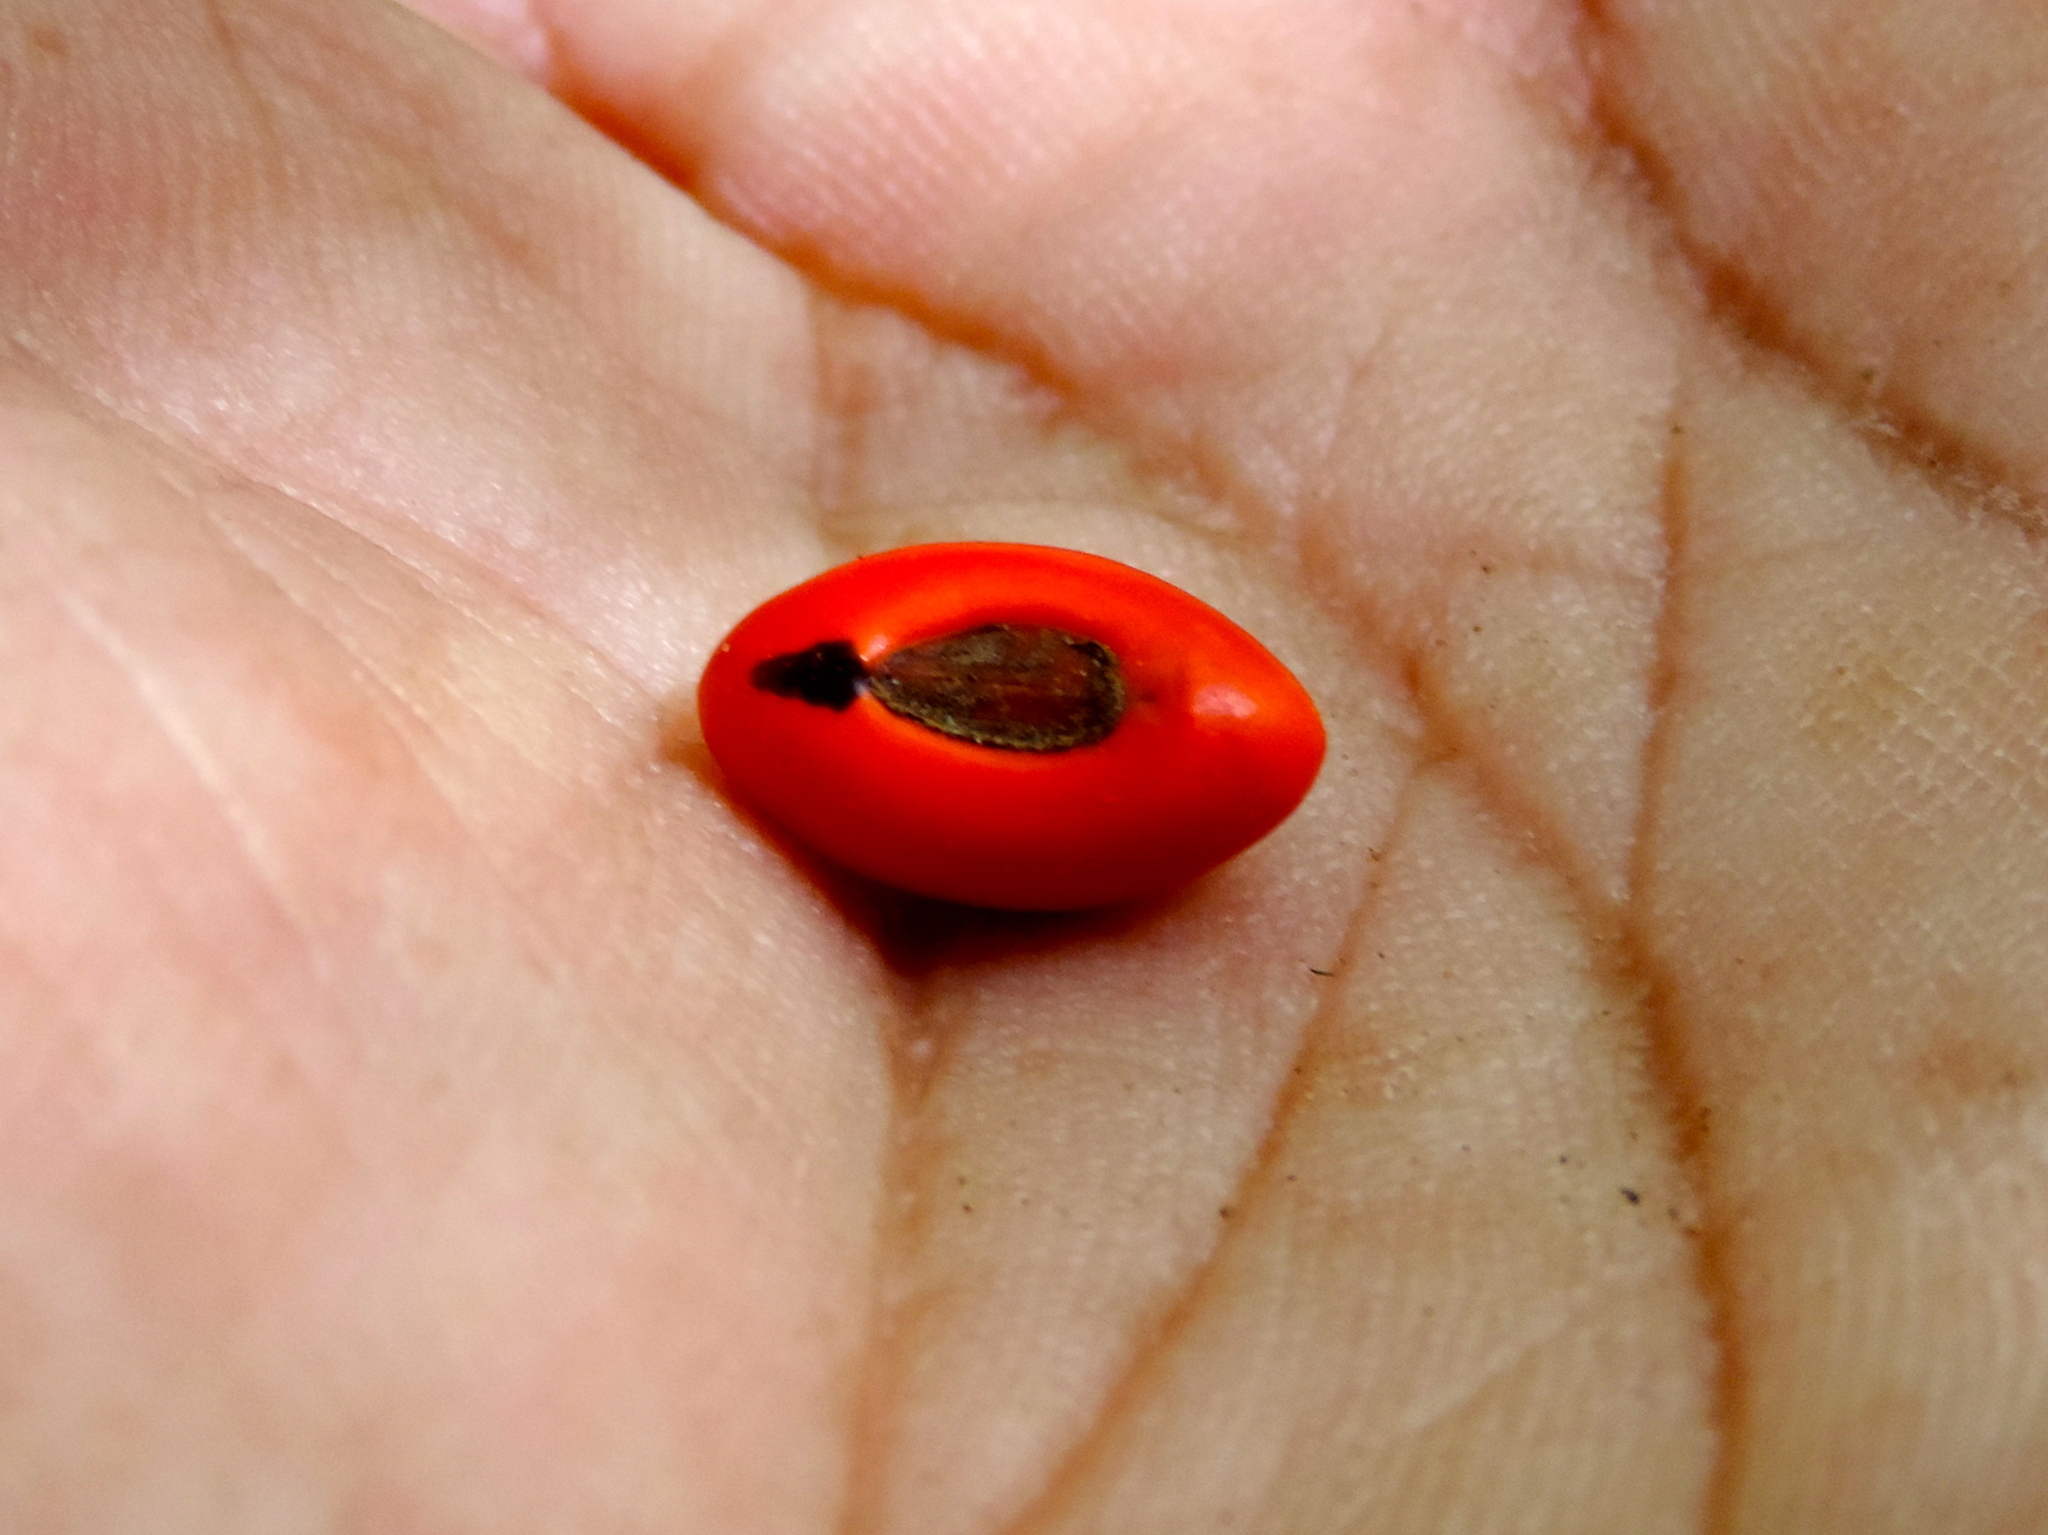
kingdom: Plantae
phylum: Tracheophyta
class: Magnoliopsida
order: Fabales
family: Fabaceae
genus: Erythrina
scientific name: Erythrina
